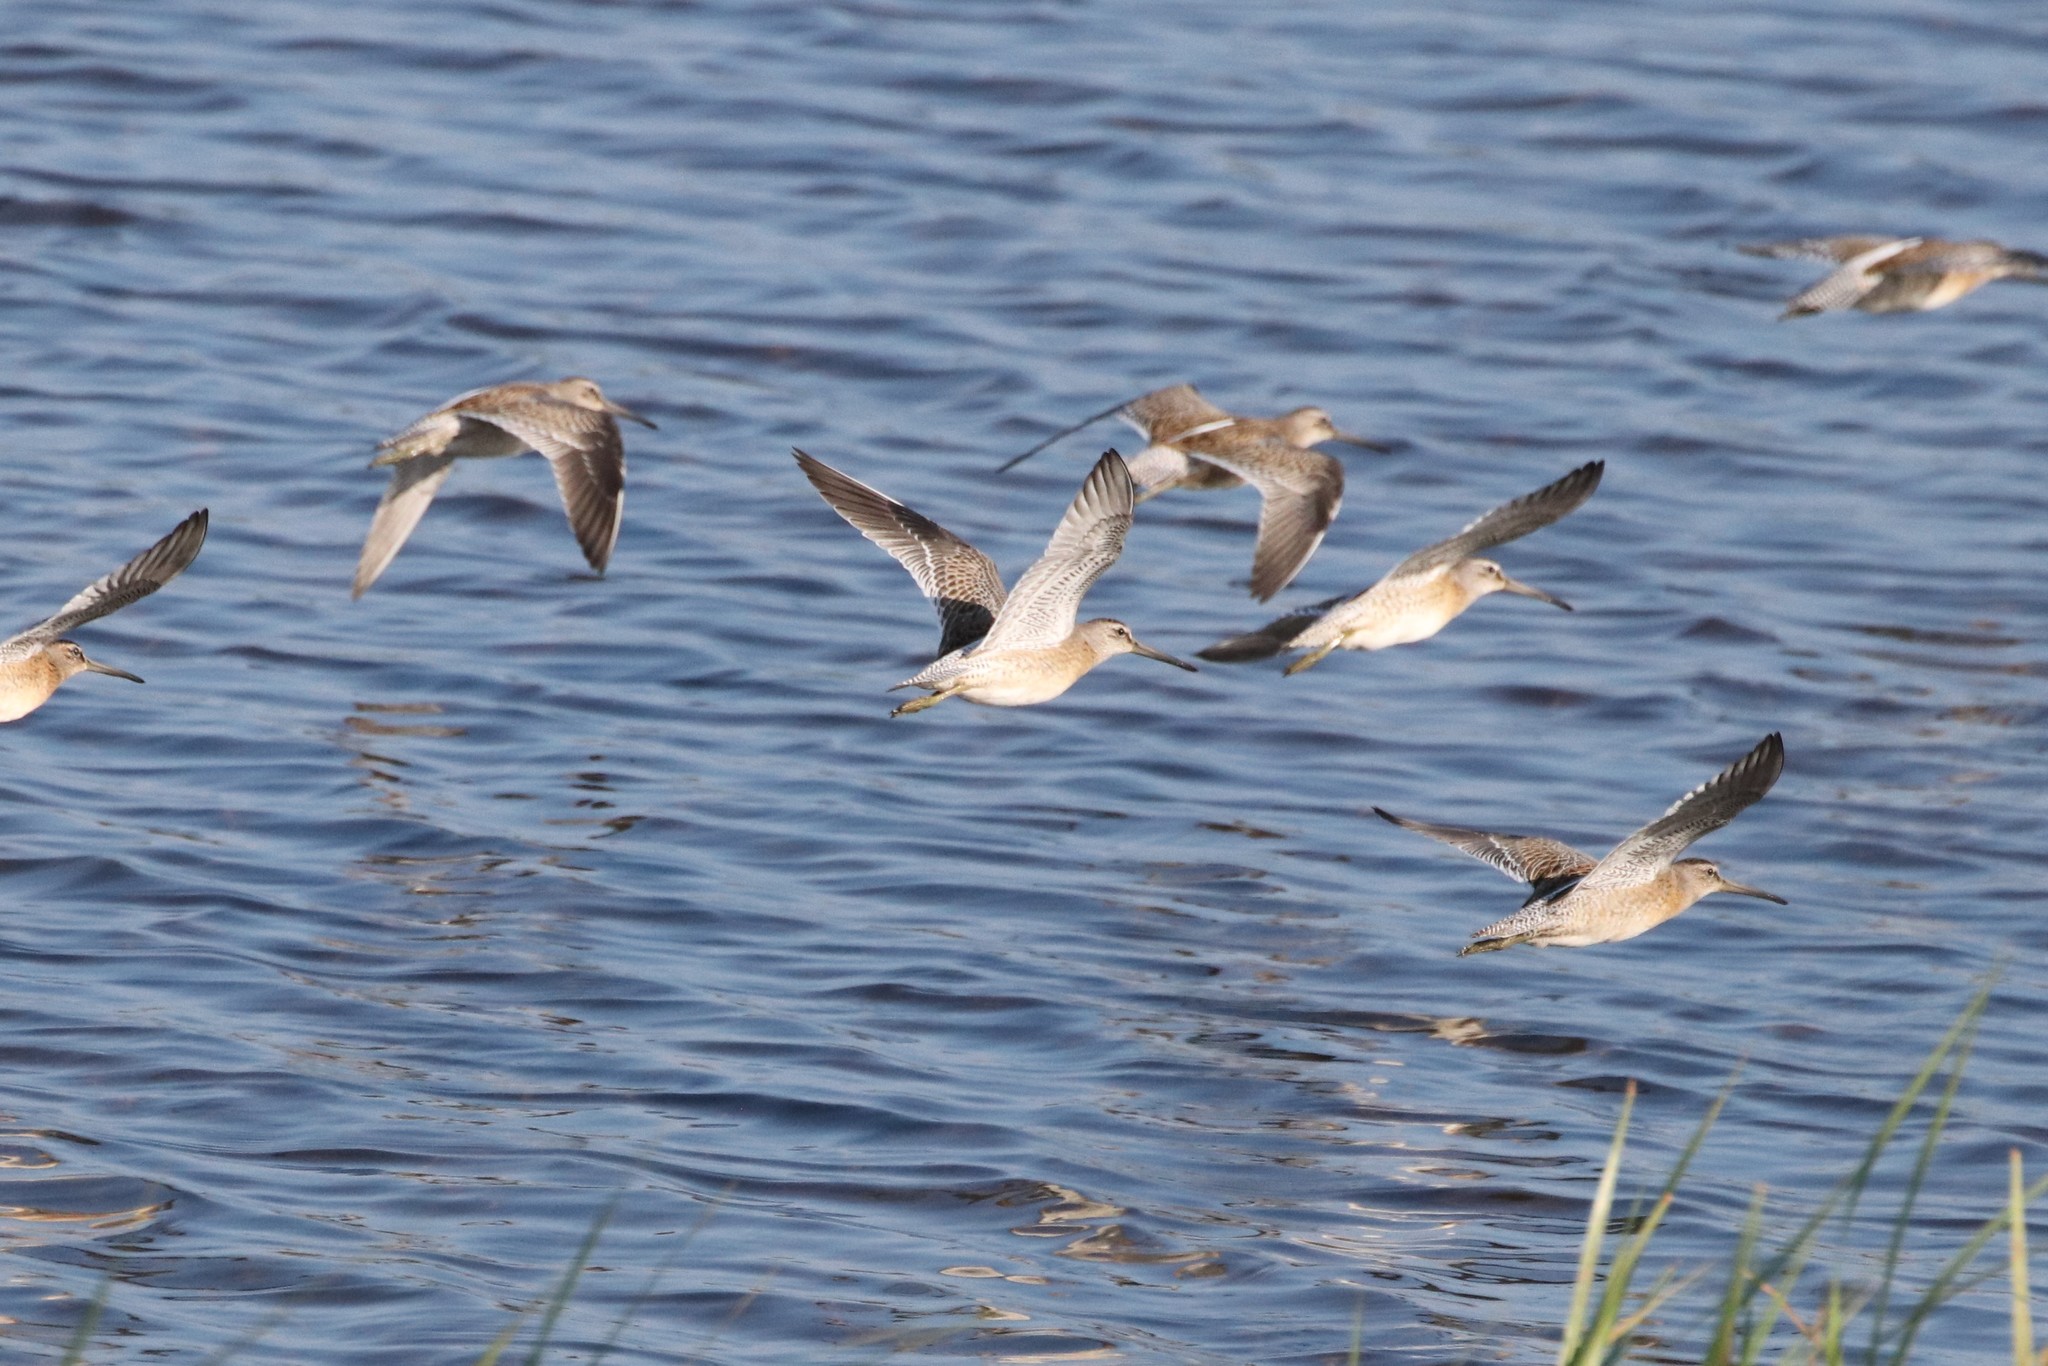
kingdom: Animalia
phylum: Chordata
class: Aves
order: Charadriiformes
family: Scolopacidae
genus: Limnodromus
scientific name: Limnodromus griseus
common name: Short-billed dowitcher
